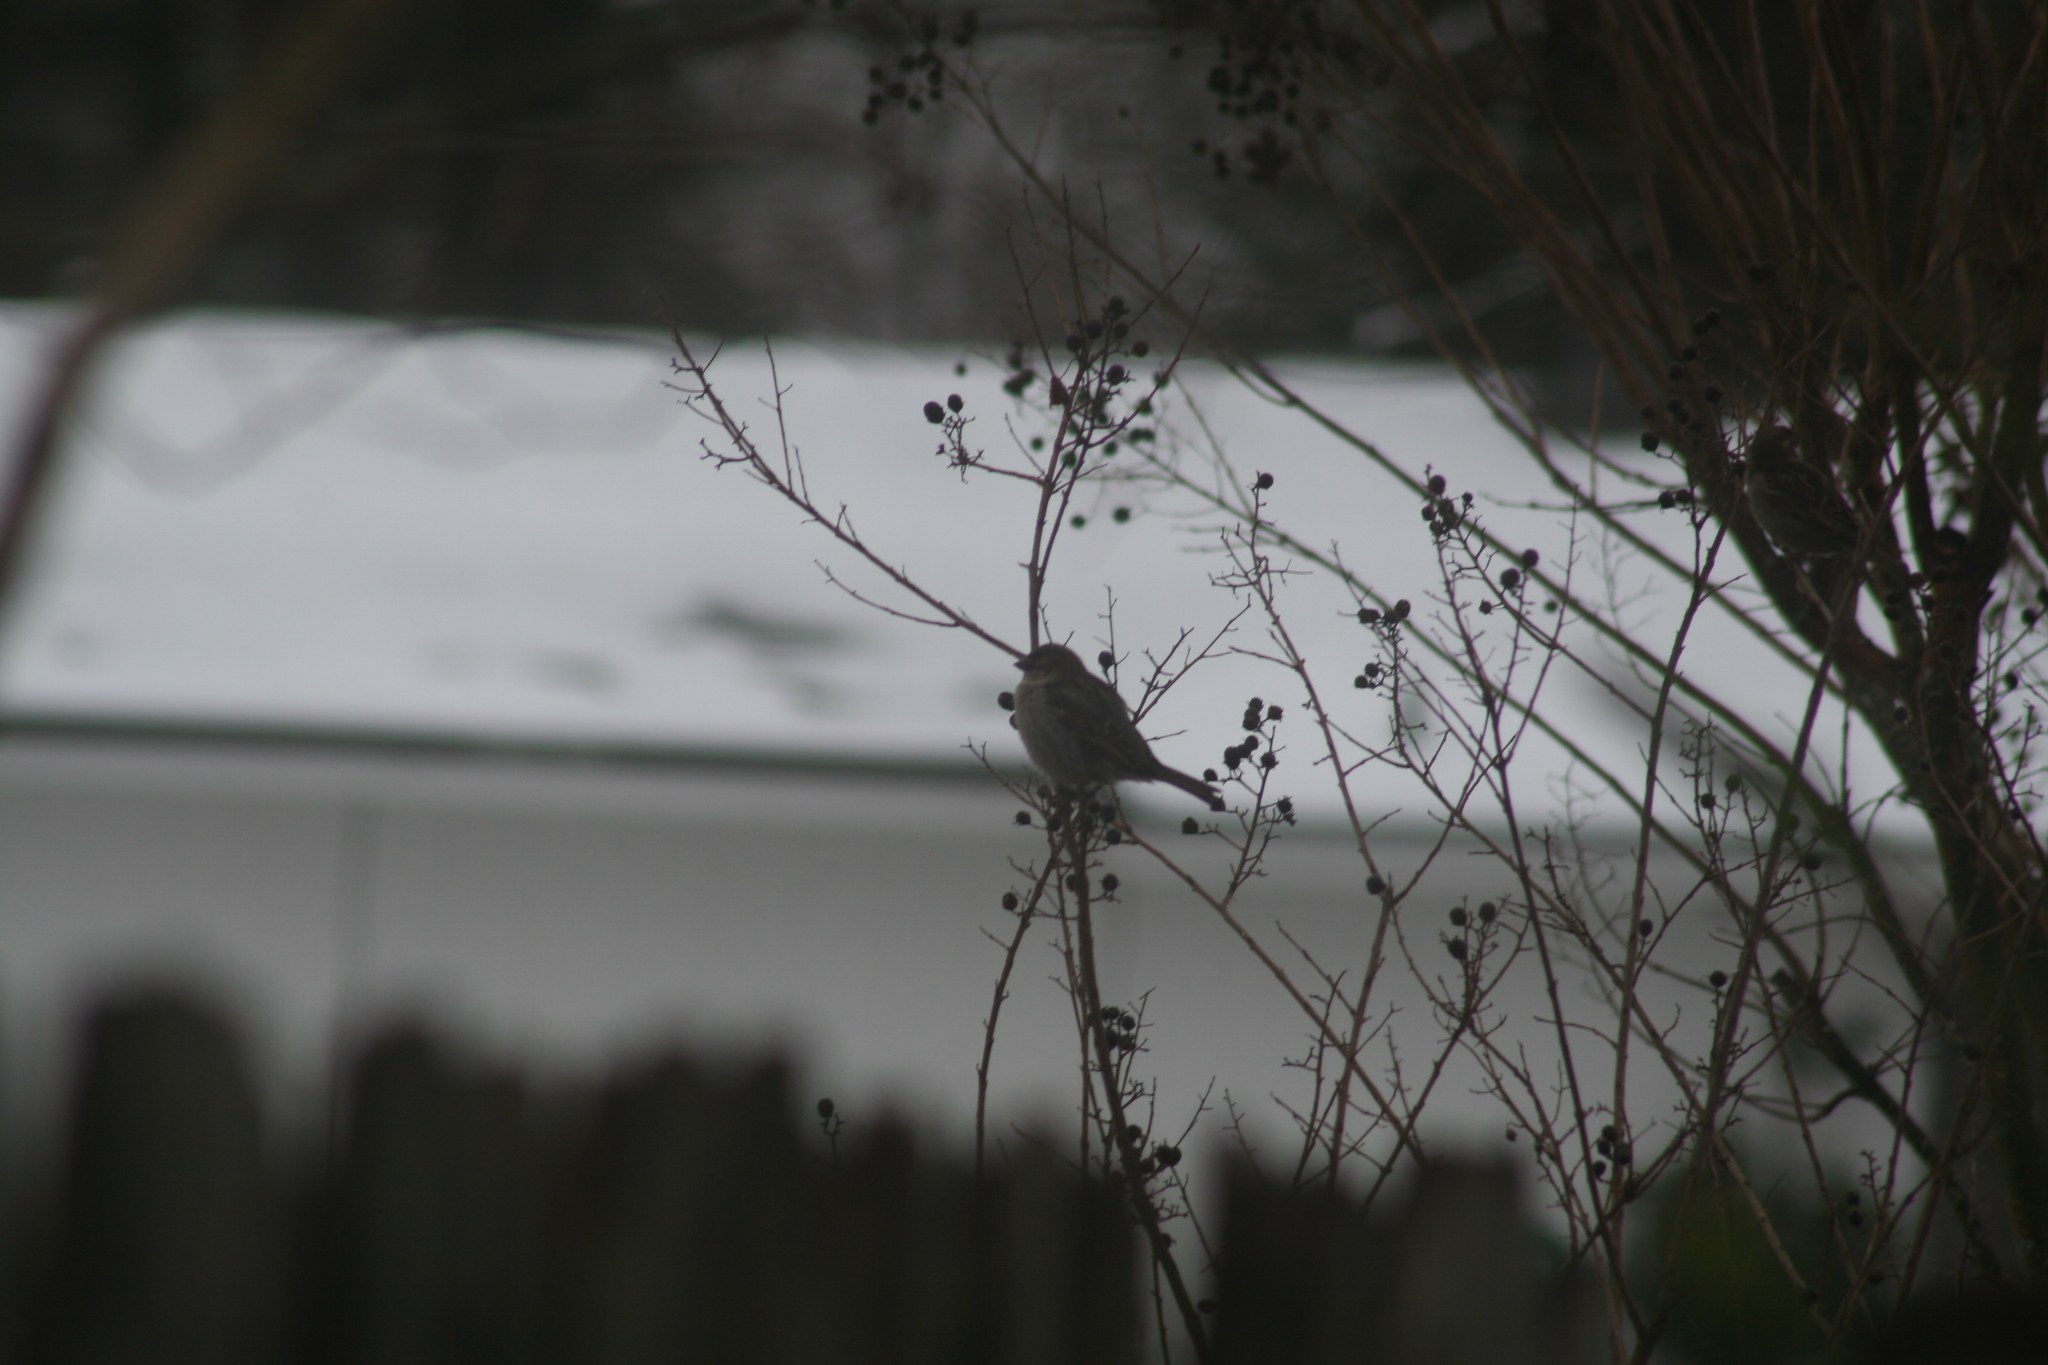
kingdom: Animalia
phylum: Chordata
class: Aves
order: Passeriformes
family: Passeridae
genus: Passer
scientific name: Passer domesticus
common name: House sparrow
